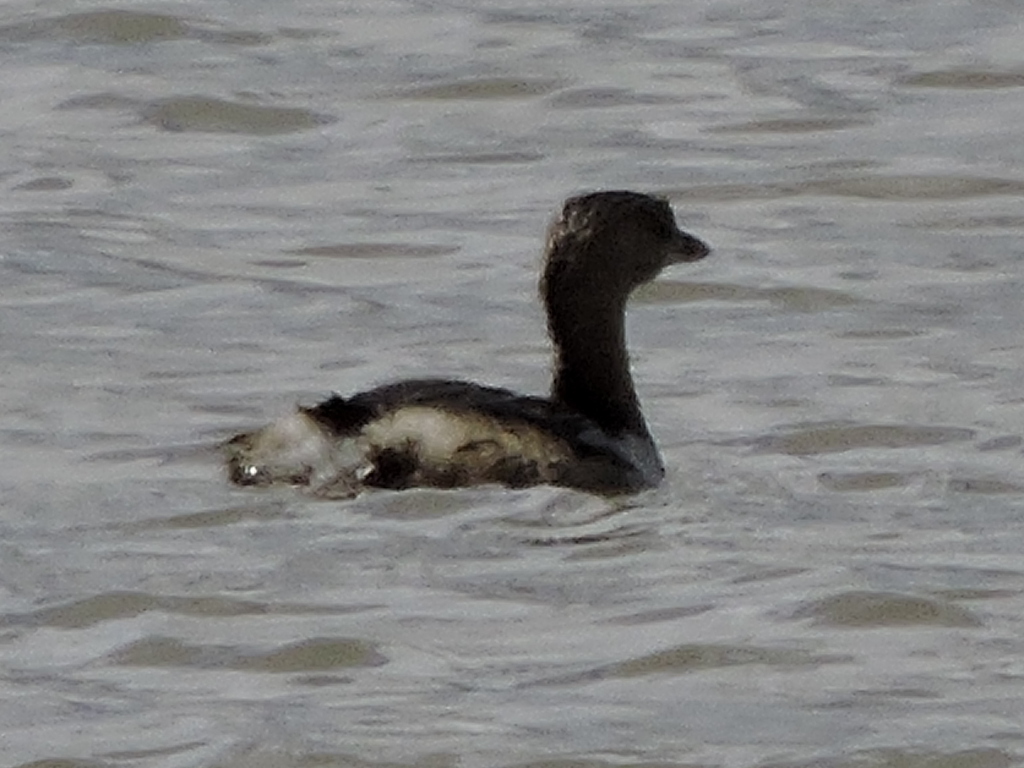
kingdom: Animalia
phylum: Chordata
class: Aves
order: Podicipediformes
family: Podicipedidae
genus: Podilymbus
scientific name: Podilymbus podiceps
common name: Pied-billed grebe
